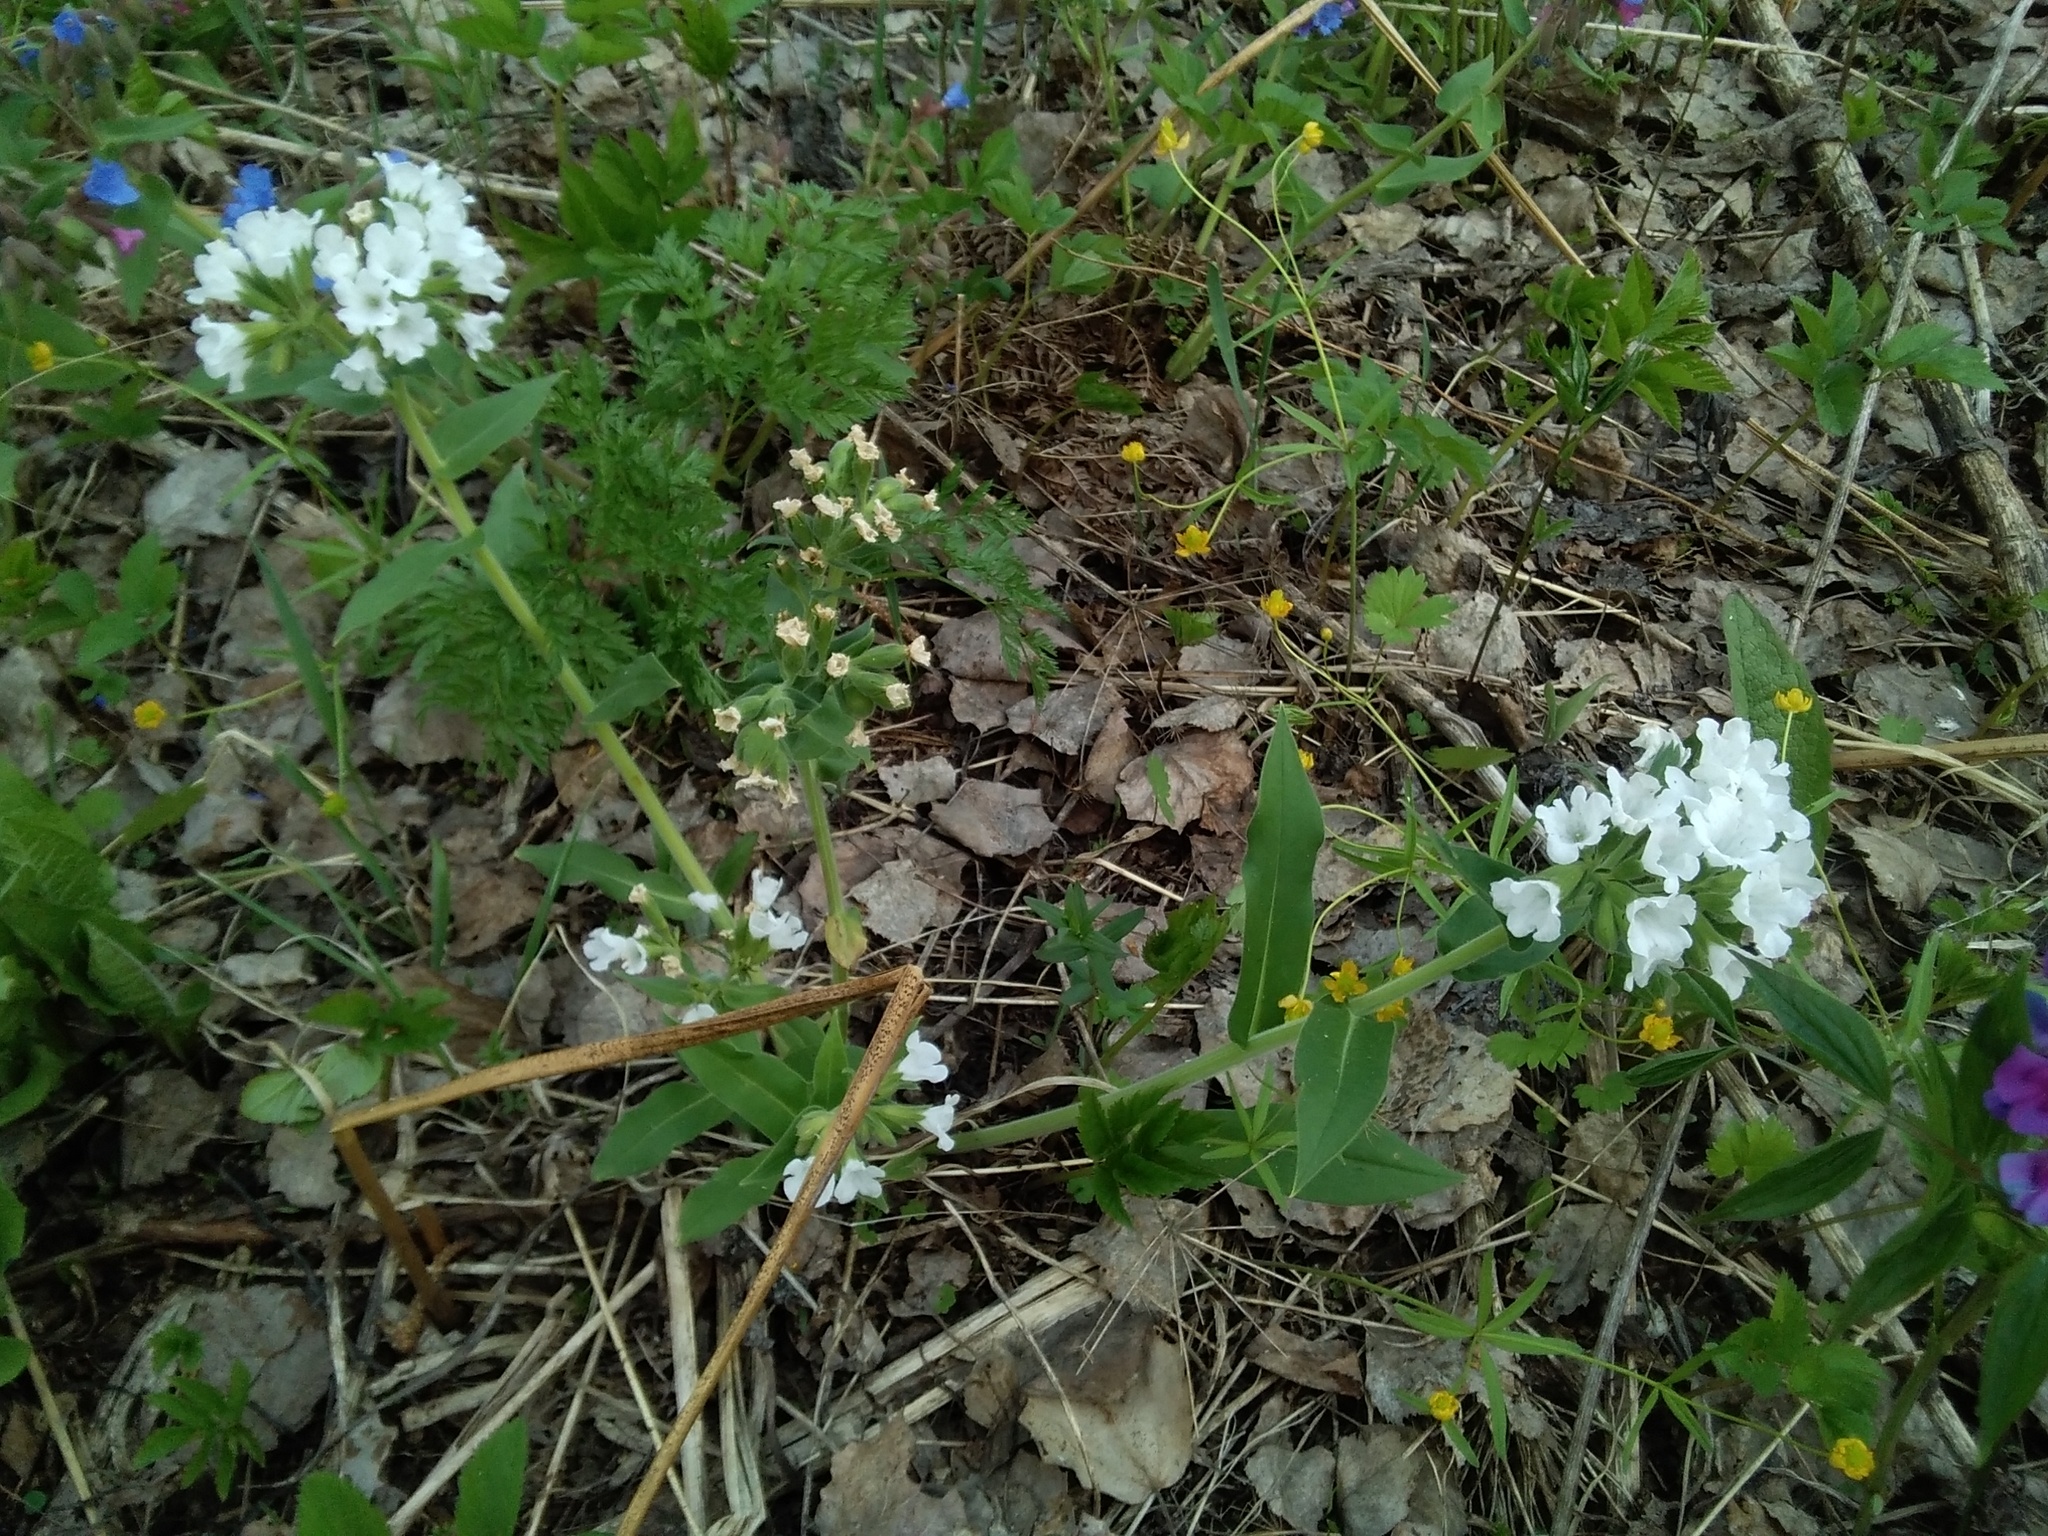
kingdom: Plantae
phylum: Tracheophyta
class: Magnoliopsida
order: Boraginales
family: Boraginaceae
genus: Pulmonaria
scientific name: Pulmonaria mollis
